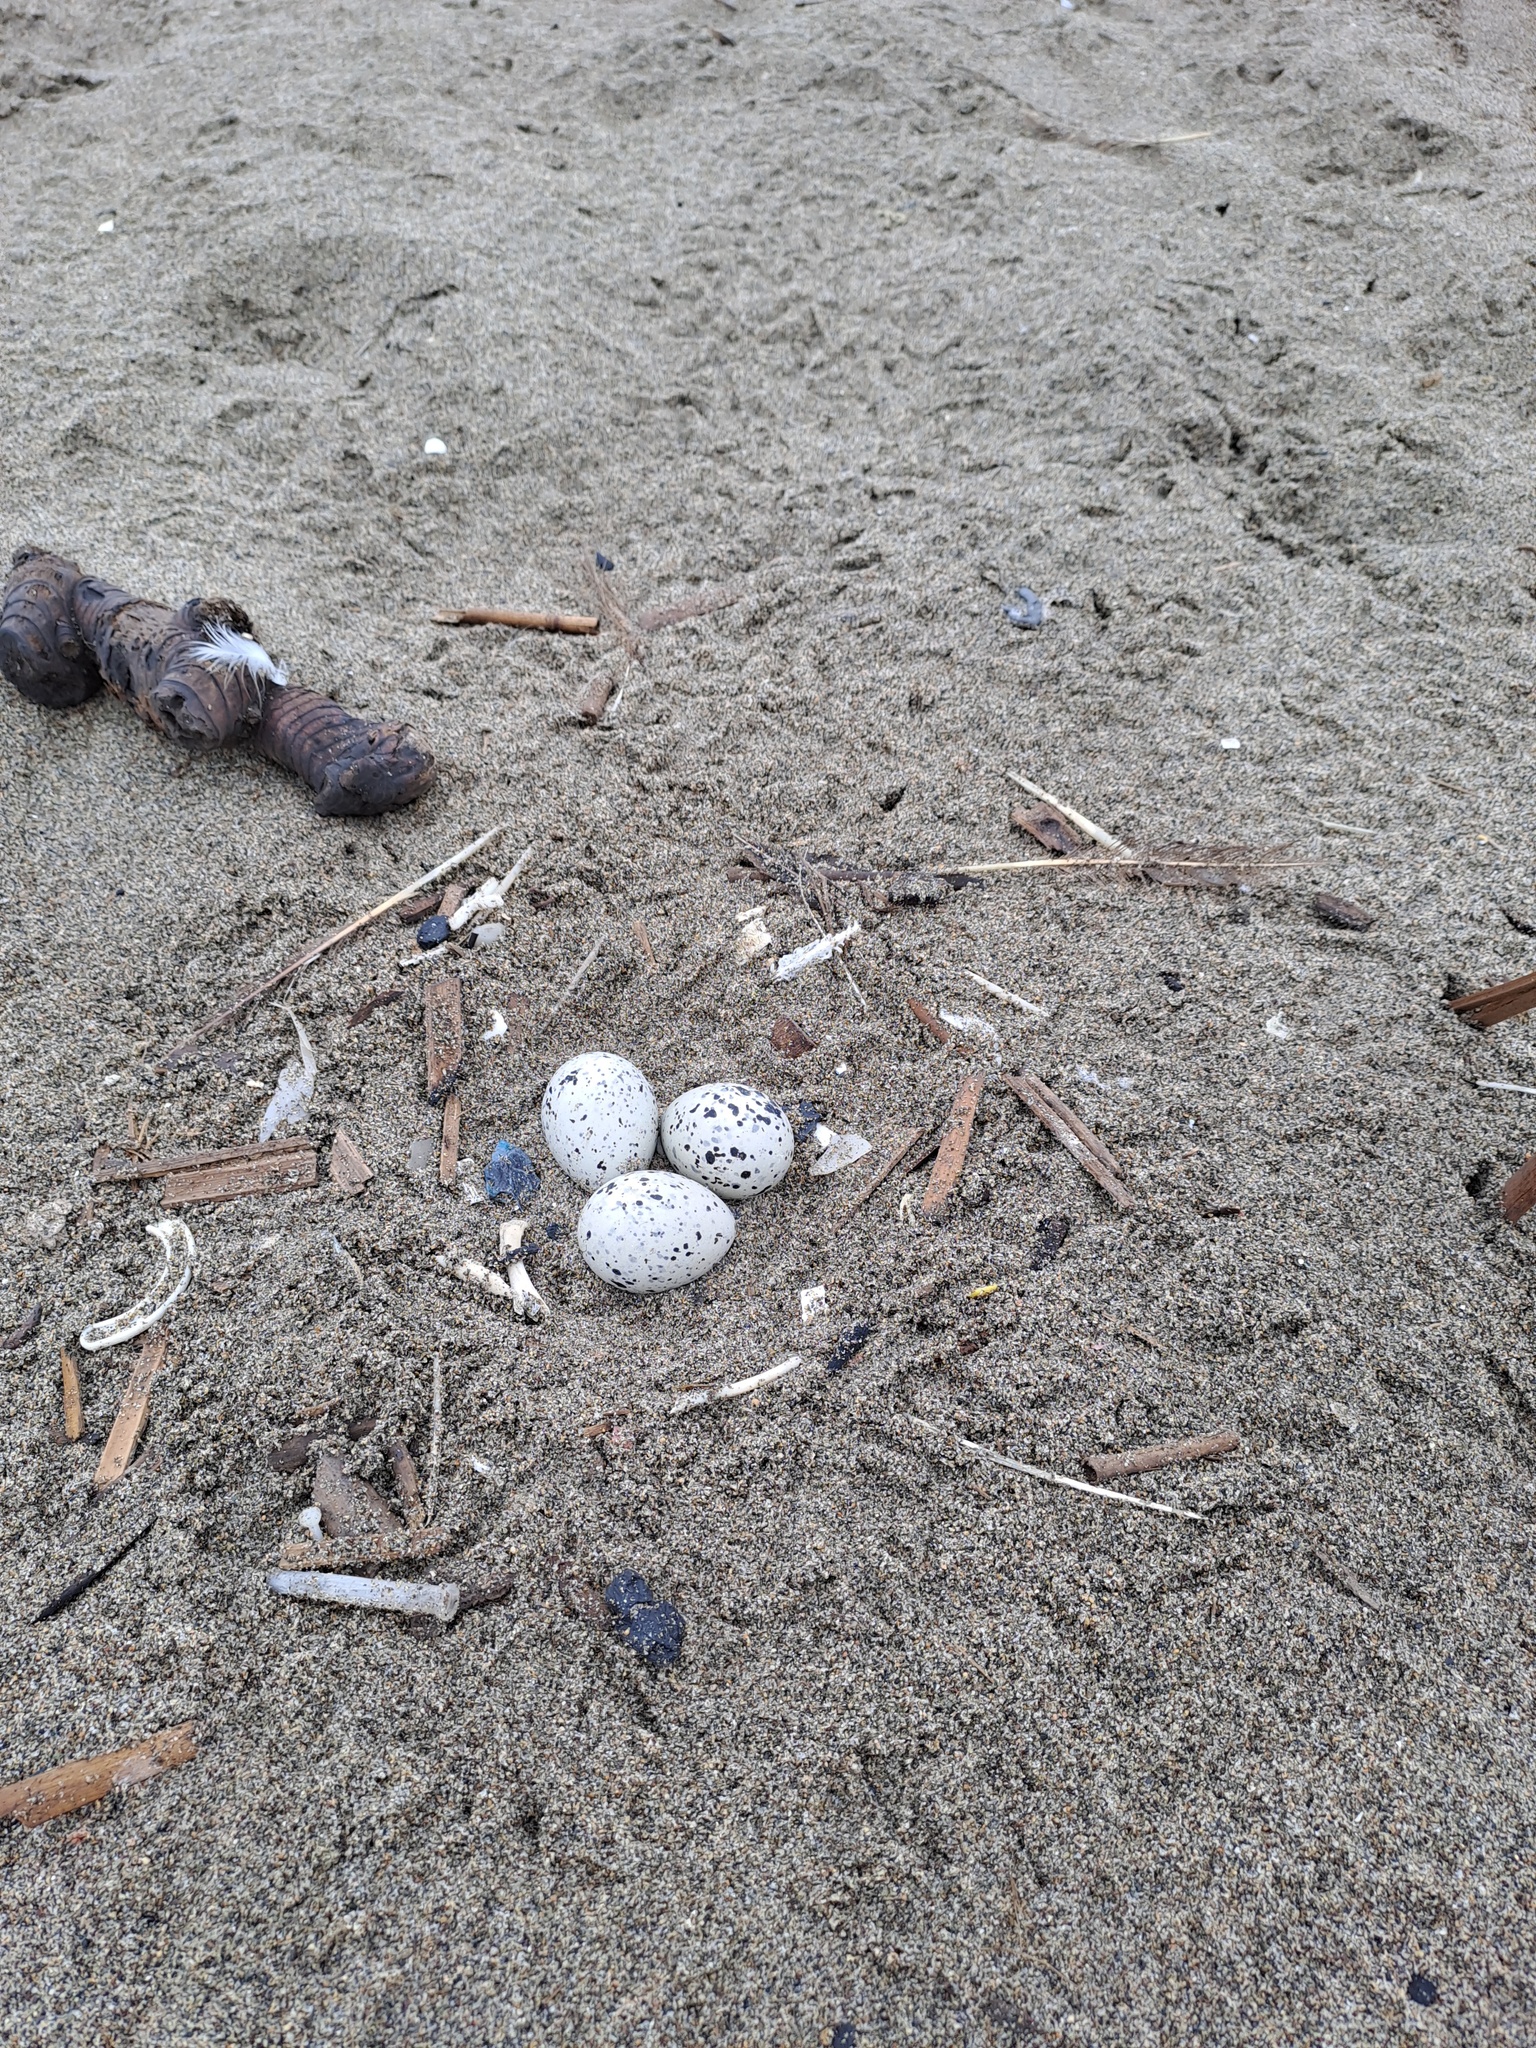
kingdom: Animalia
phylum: Chordata
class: Aves
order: Charadriiformes
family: Haematopodidae
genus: Haematopus
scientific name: Haematopus palliatus
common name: American oystercatcher
